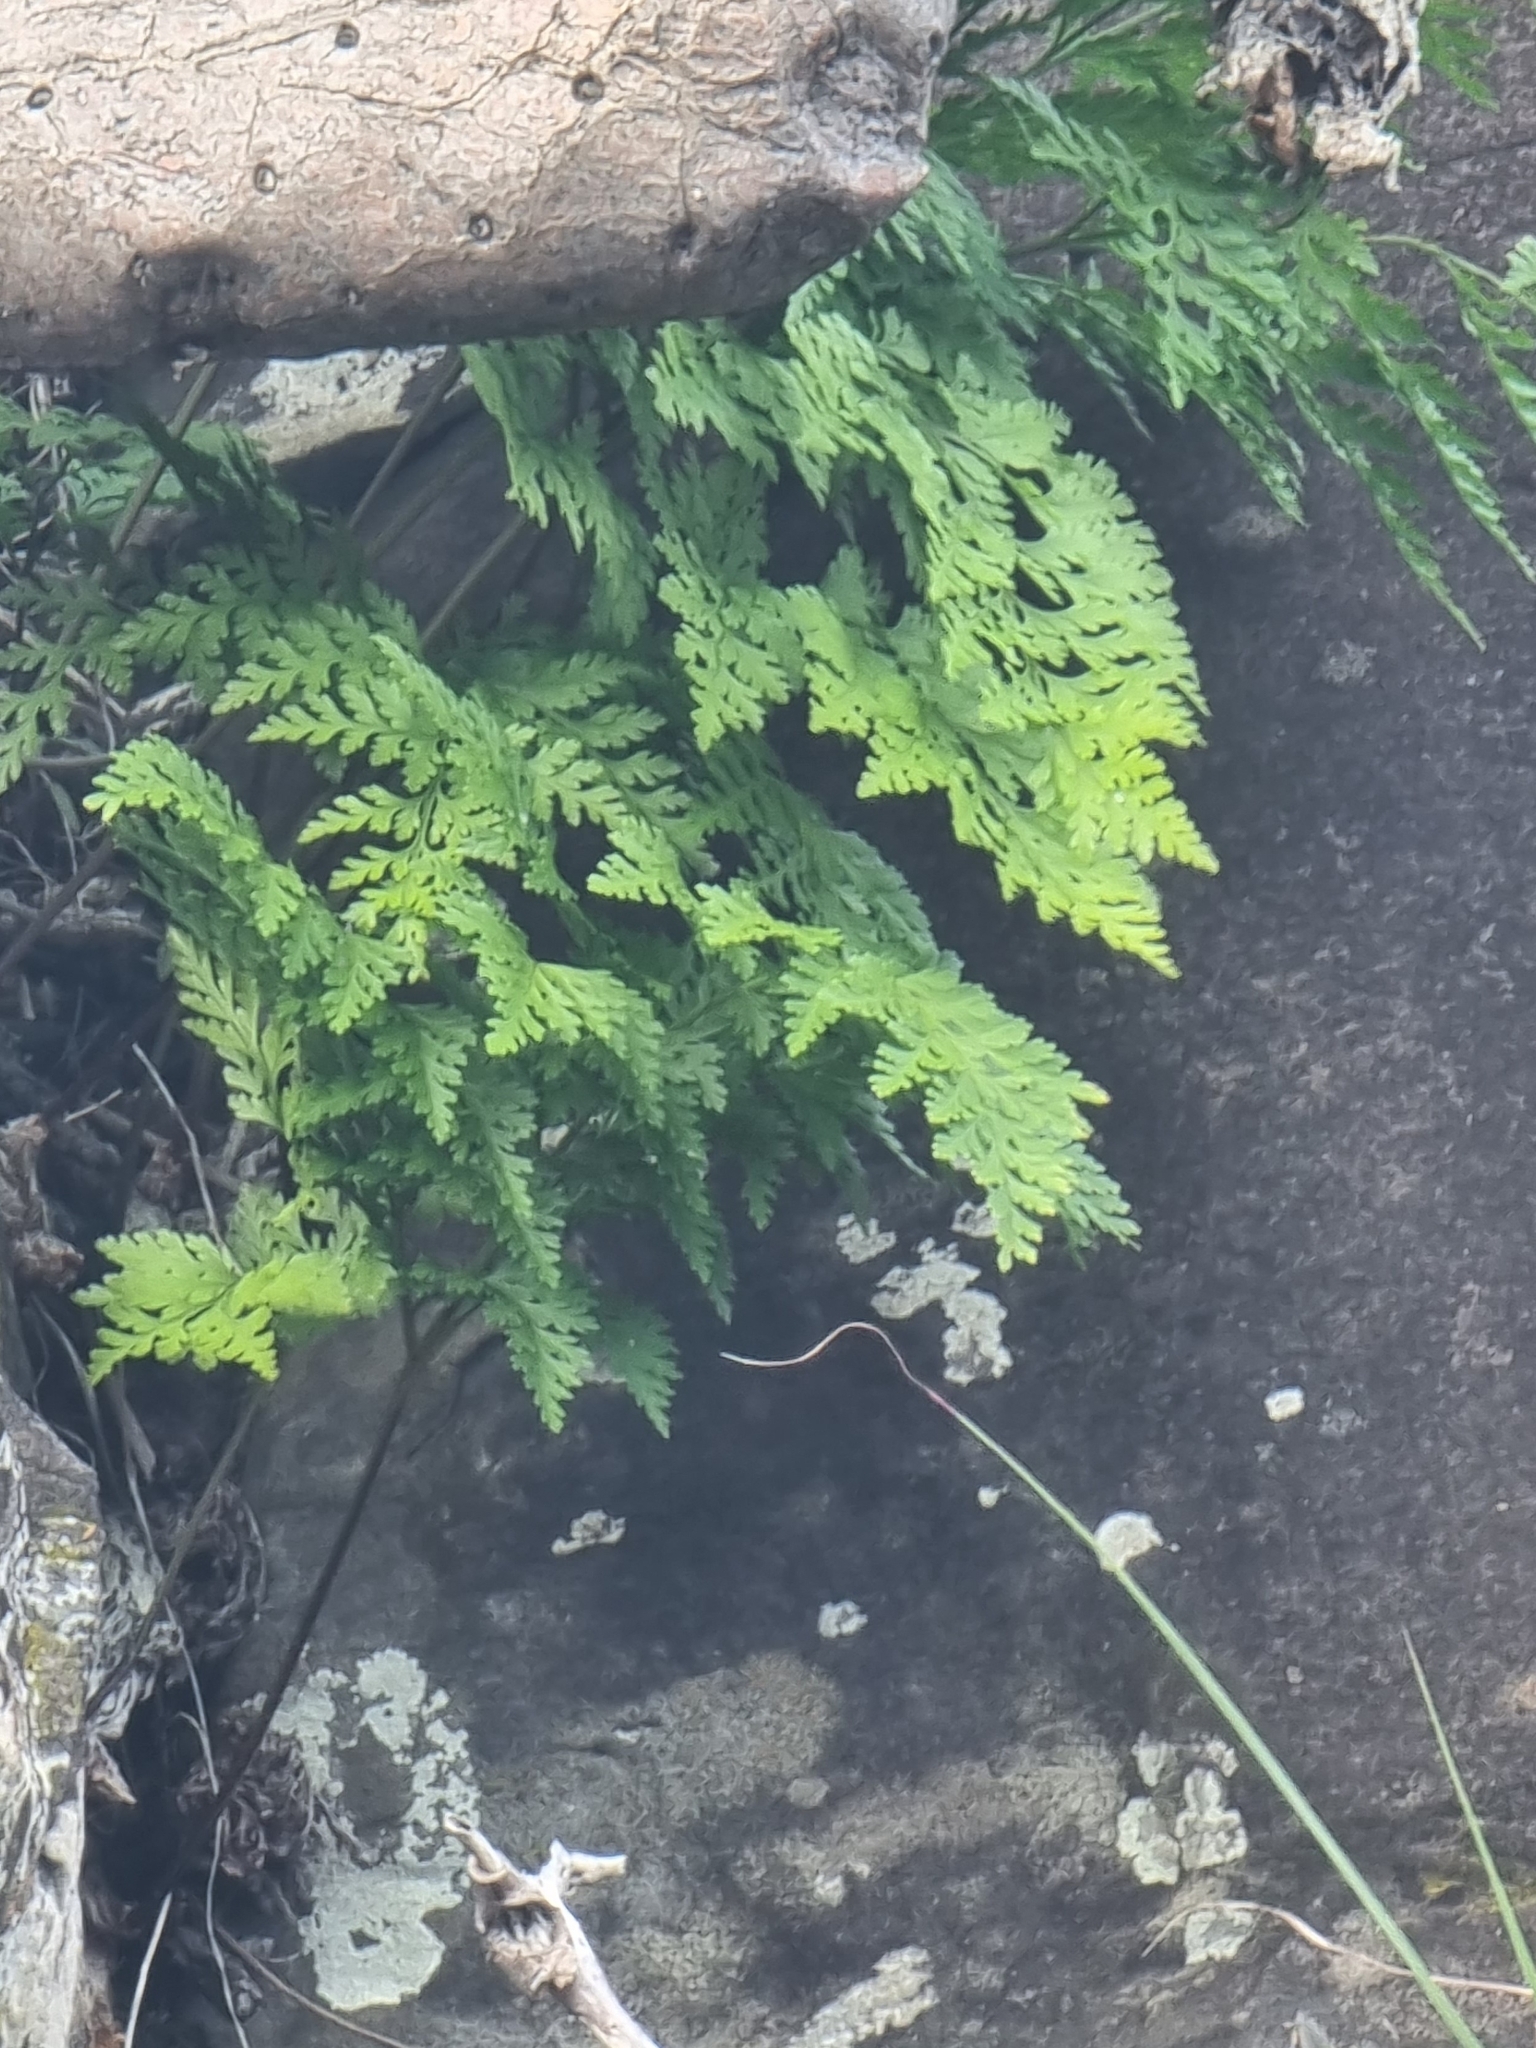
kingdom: Plantae
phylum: Tracheophyta
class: Polypodiopsida
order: Polypodiales
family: Davalliaceae
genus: Davallia
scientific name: Davallia canariensis
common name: Hare's-foot fern
